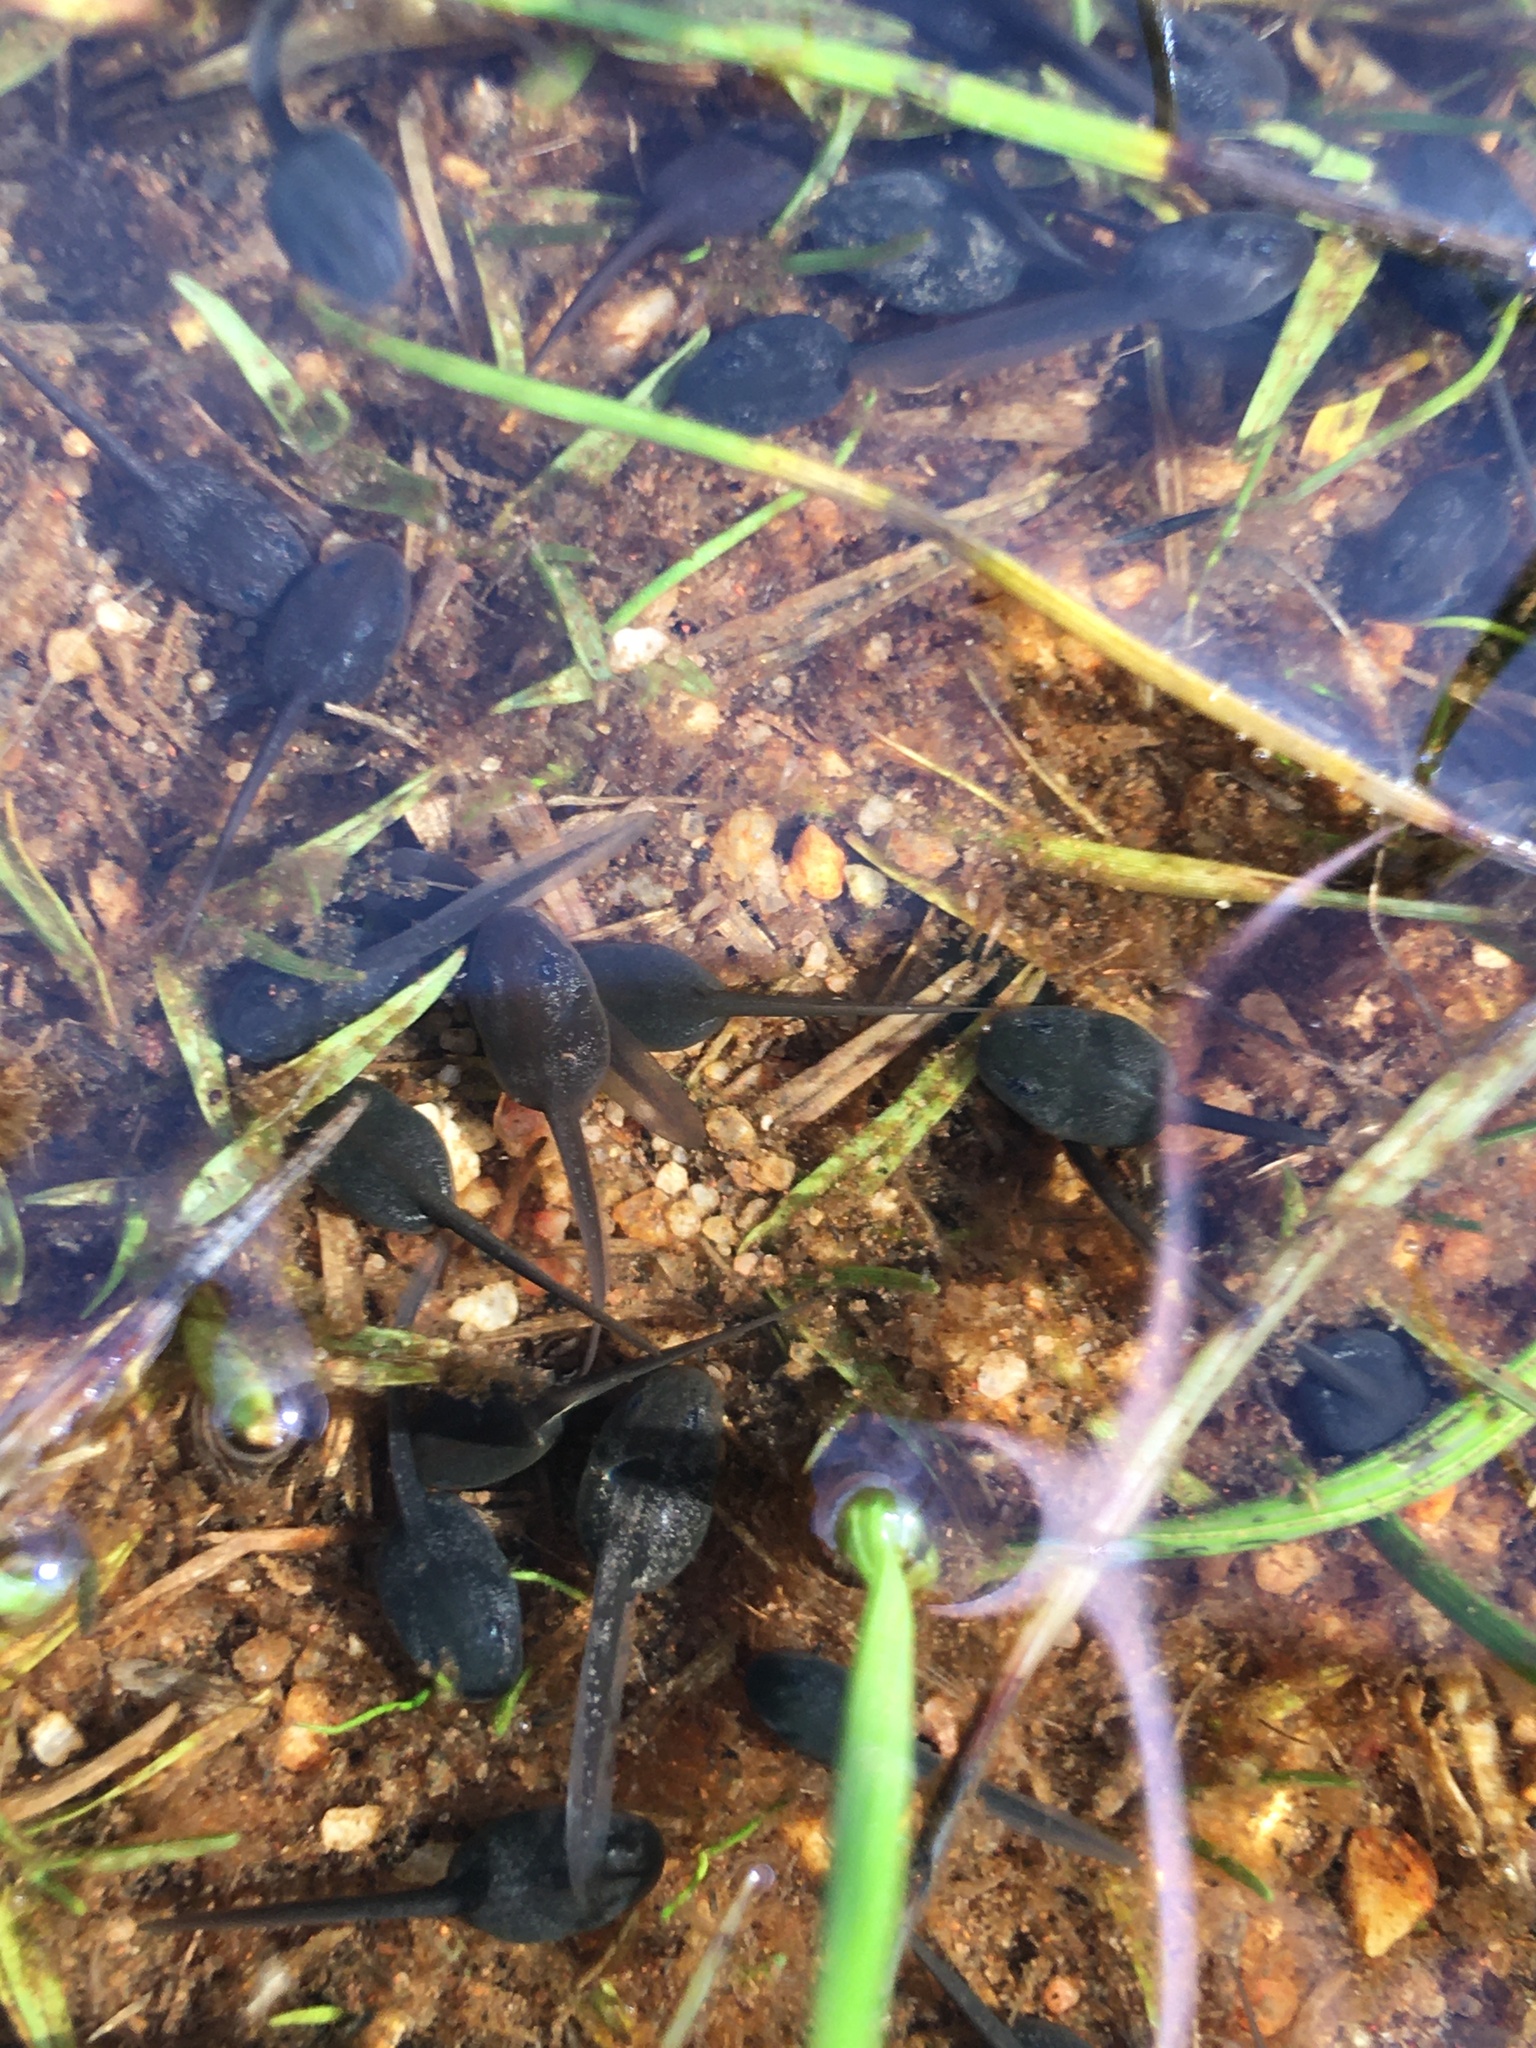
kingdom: Animalia
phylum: Chordata
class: Amphibia
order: Anura
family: Bufonidae
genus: Vandijkophrynus
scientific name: Vandijkophrynus angusticeps
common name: Sand toad
